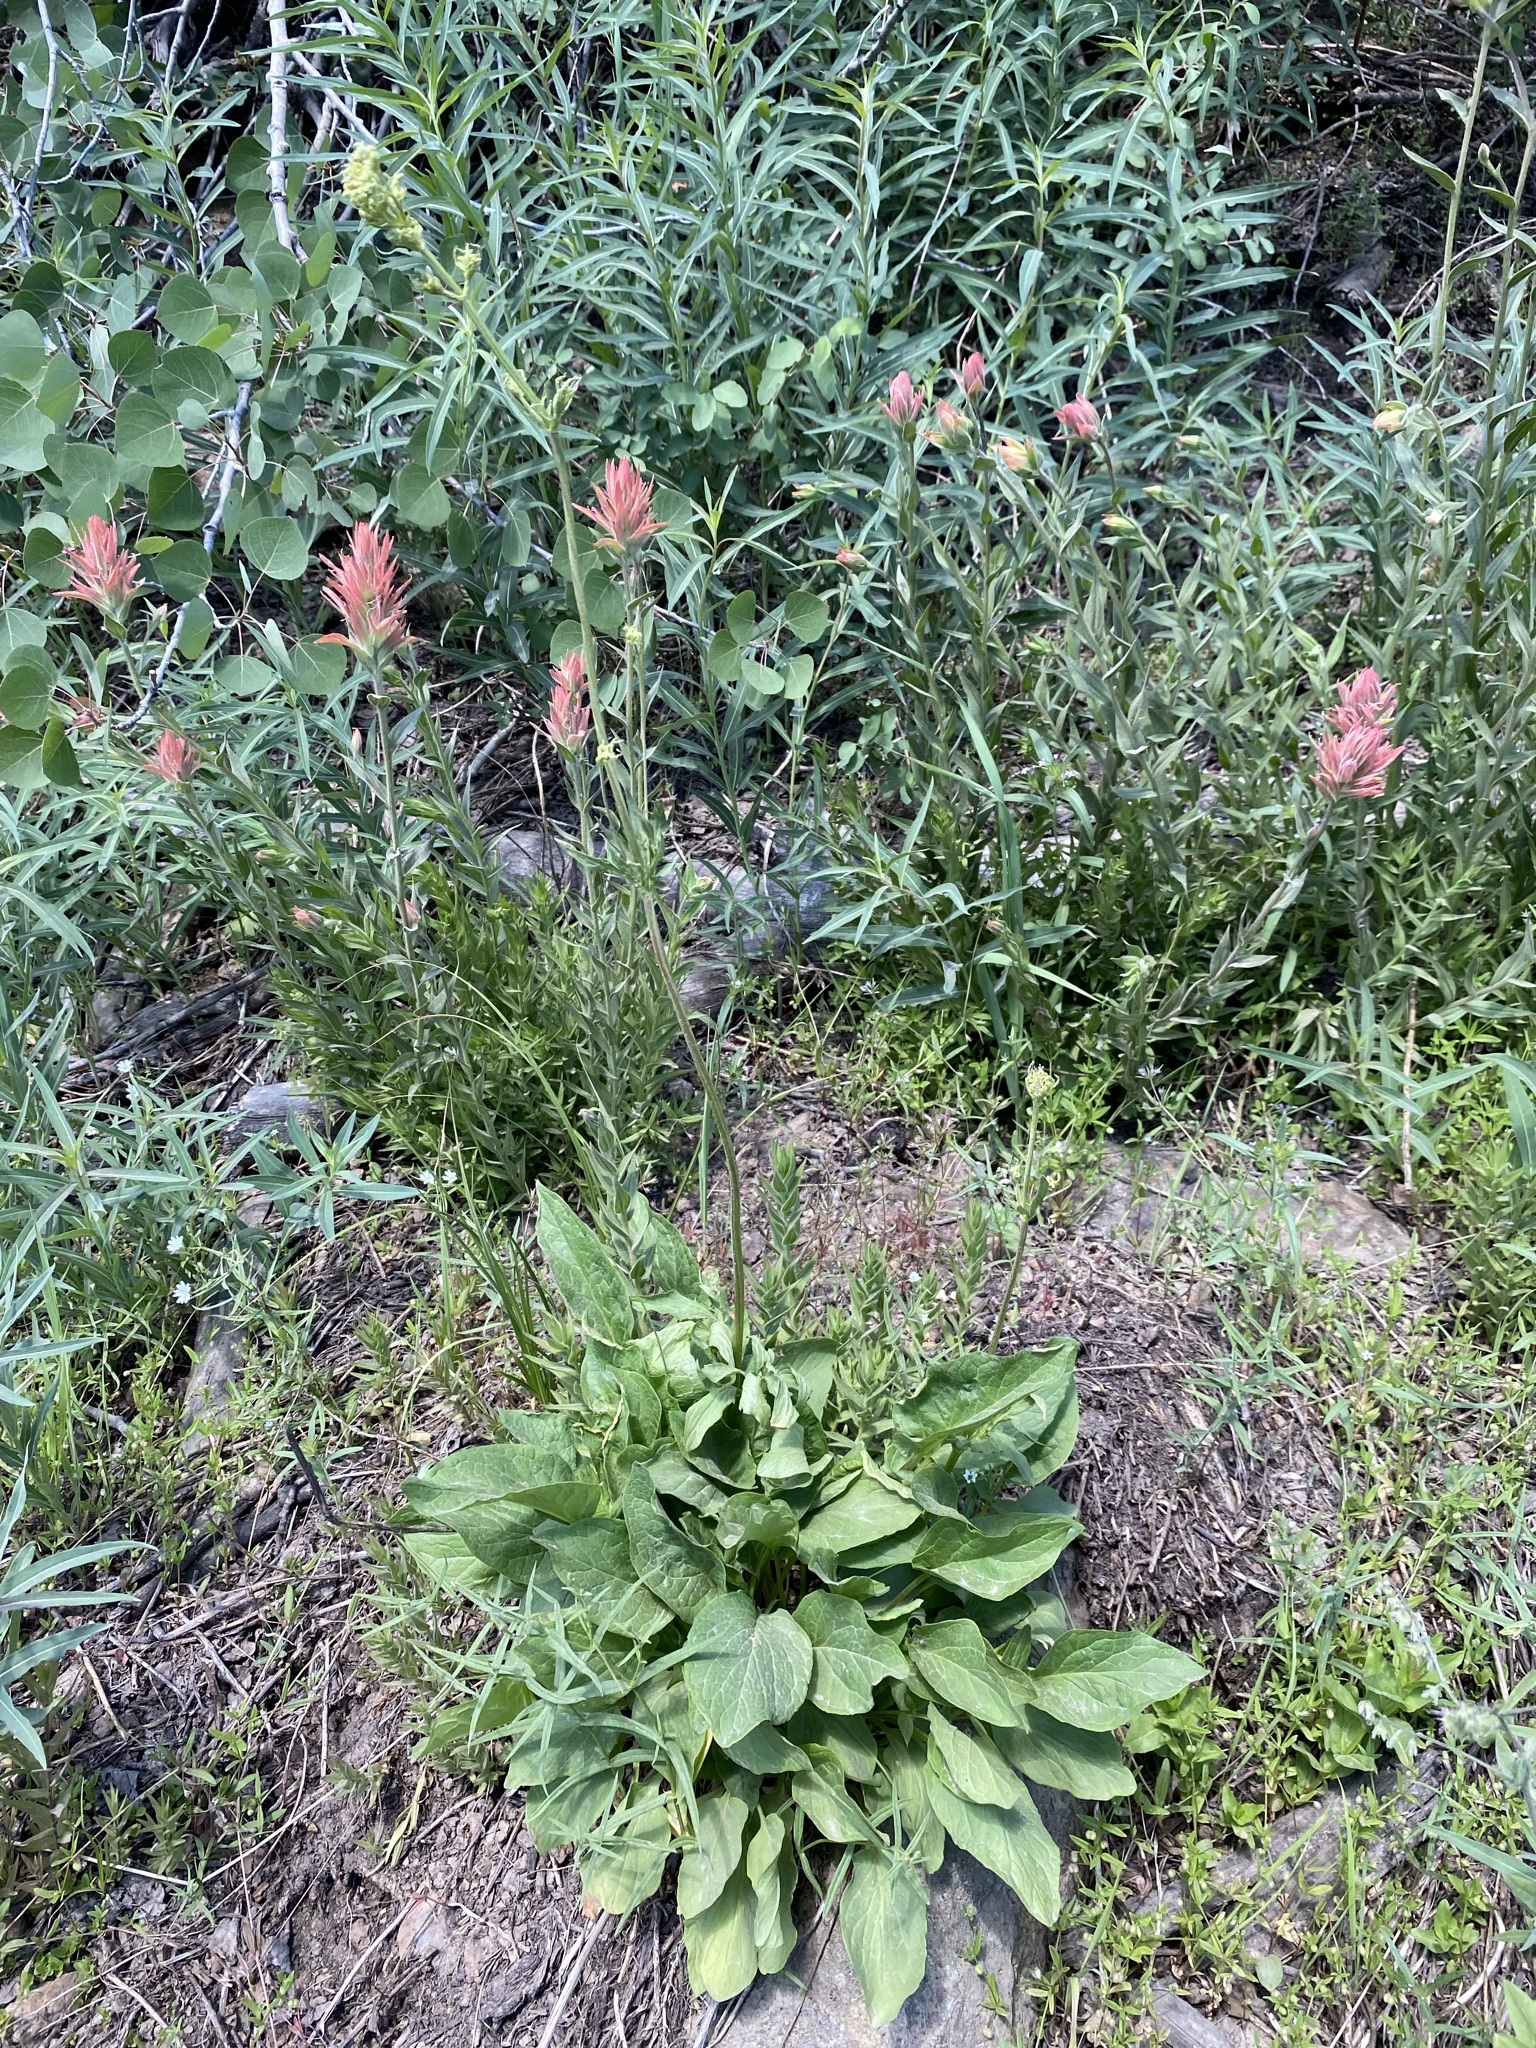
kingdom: Plantae
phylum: Tracheophyta
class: Magnoliopsida
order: Dipsacales
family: Caprifoliaceae
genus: Valeriana
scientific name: Valeriana edulis
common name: Taproot valerian
